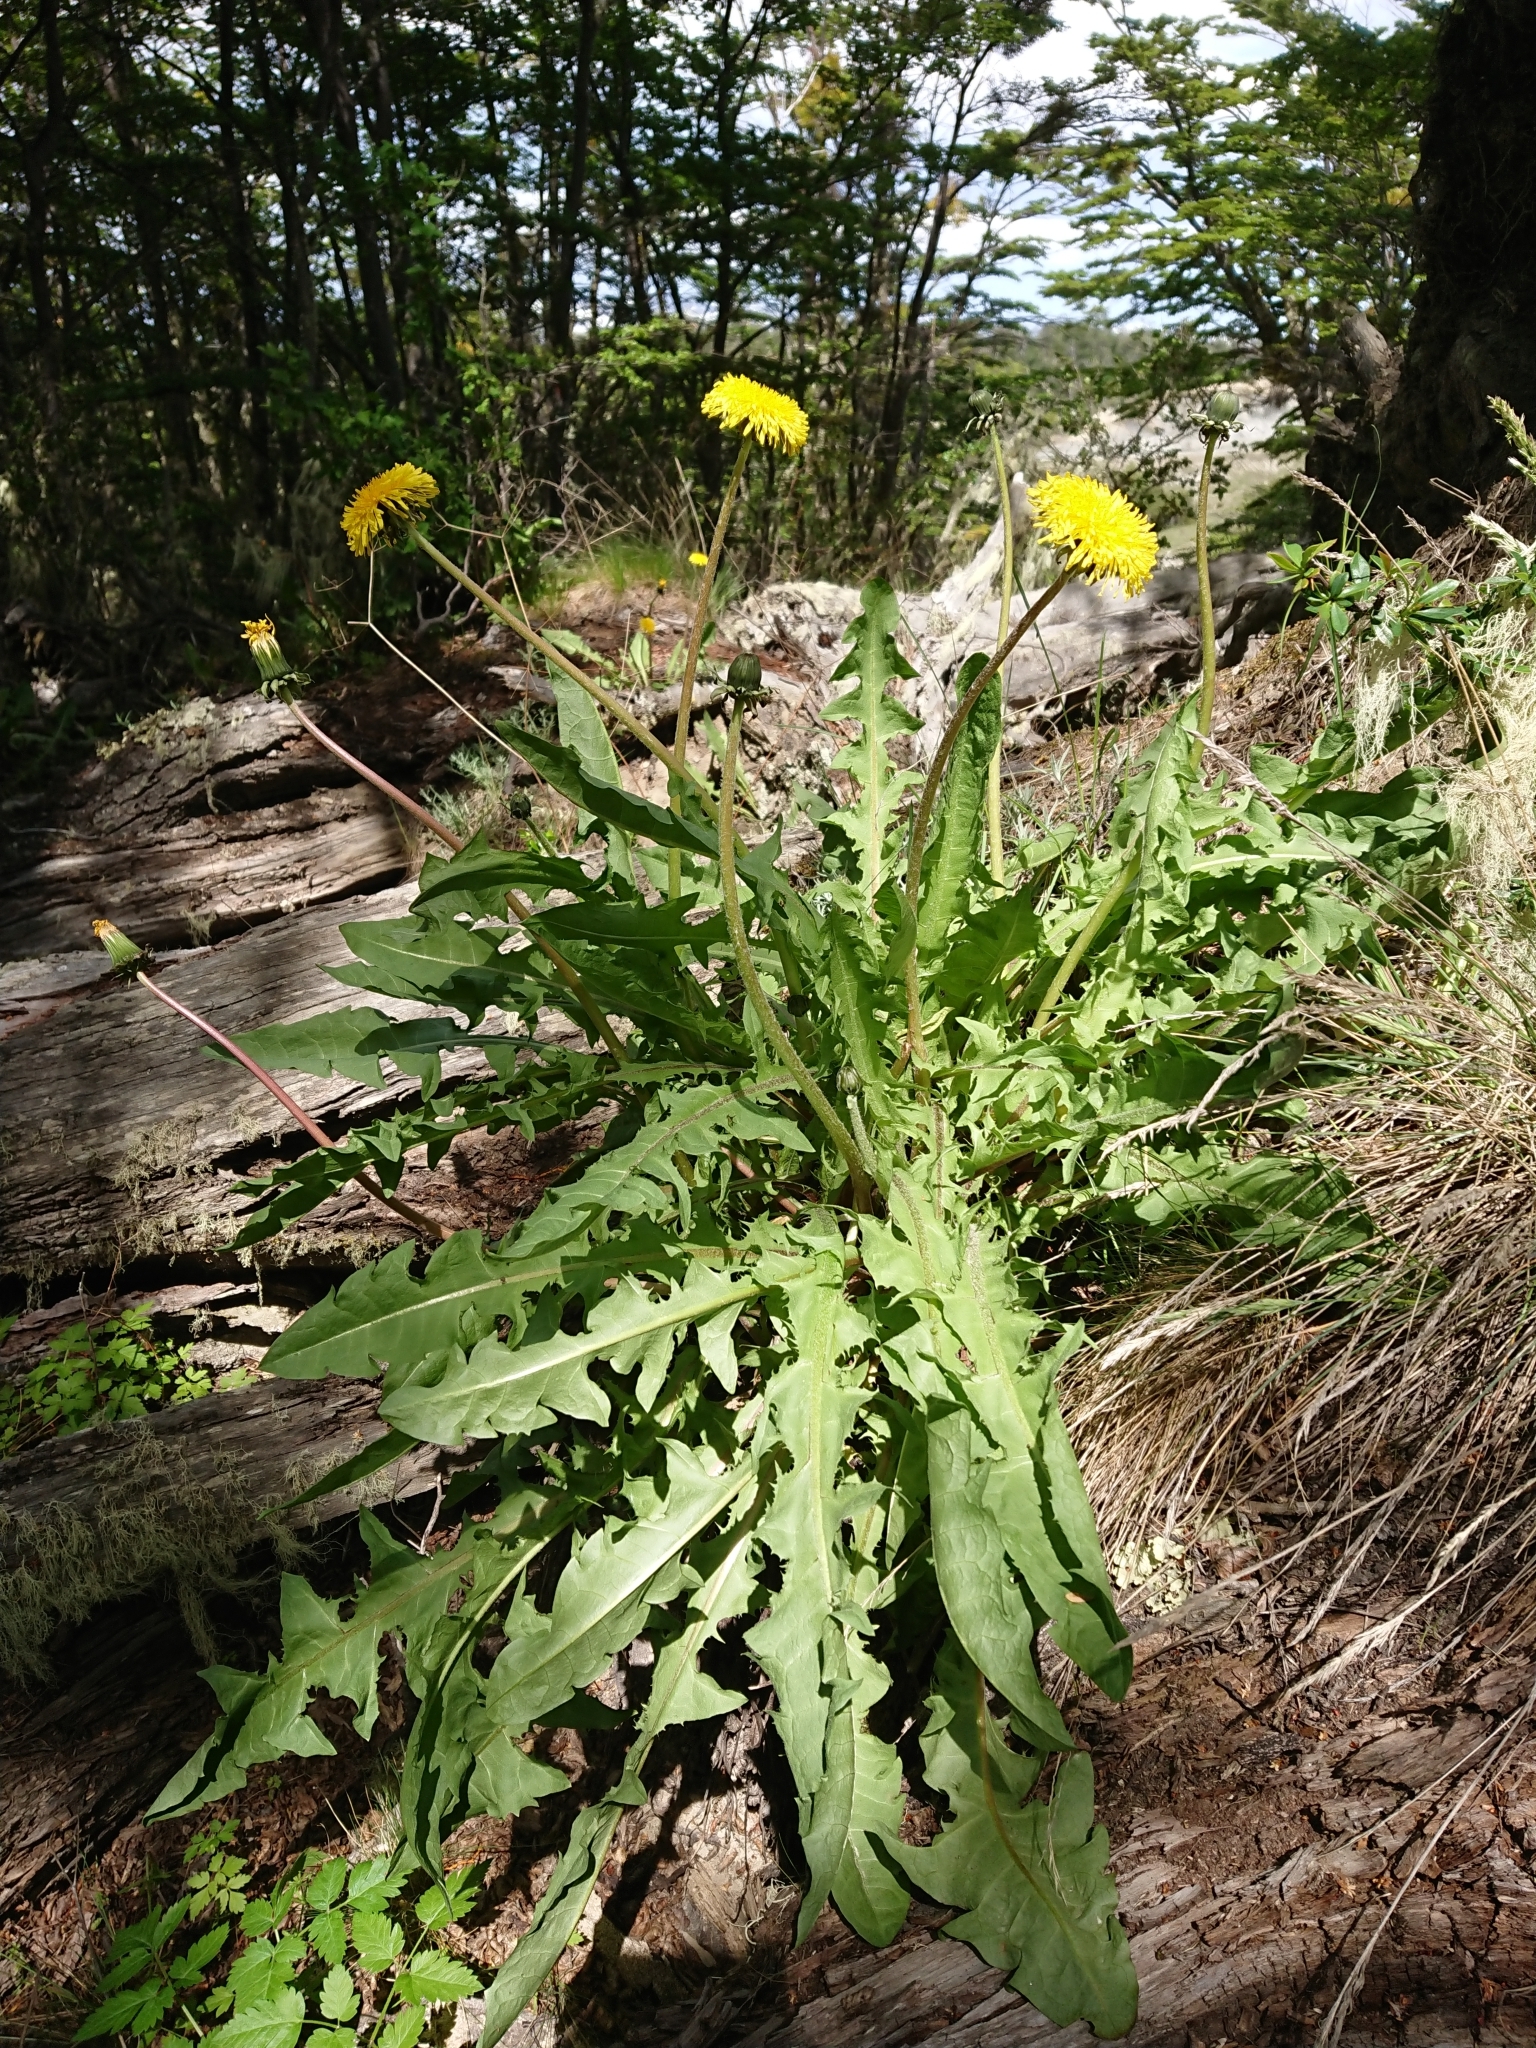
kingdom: Plantae
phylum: Tracheophyta
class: Magnoliopsida
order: Asterales
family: Asteraceae
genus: Taraxacum
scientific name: Taraxacum officinale
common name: Common dandelion
